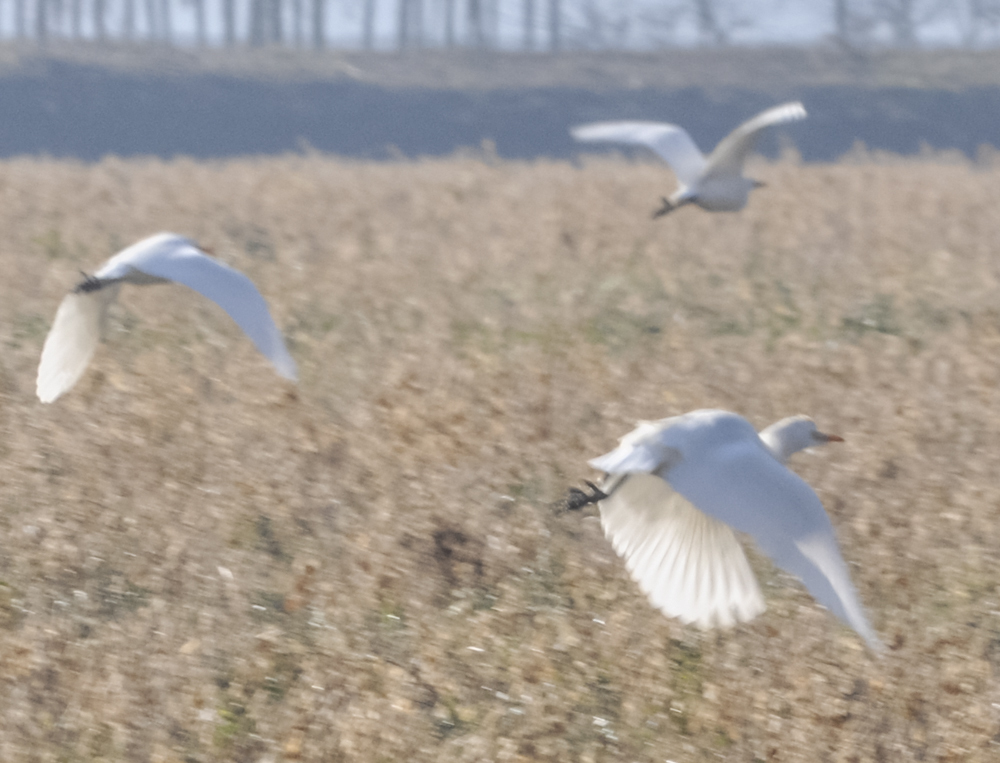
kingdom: Animalia
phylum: Chordata
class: Aves
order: Pelecaniformes
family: Ardeidae
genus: Bubulcus
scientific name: Bubulcus ibis
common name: Cattle egret
